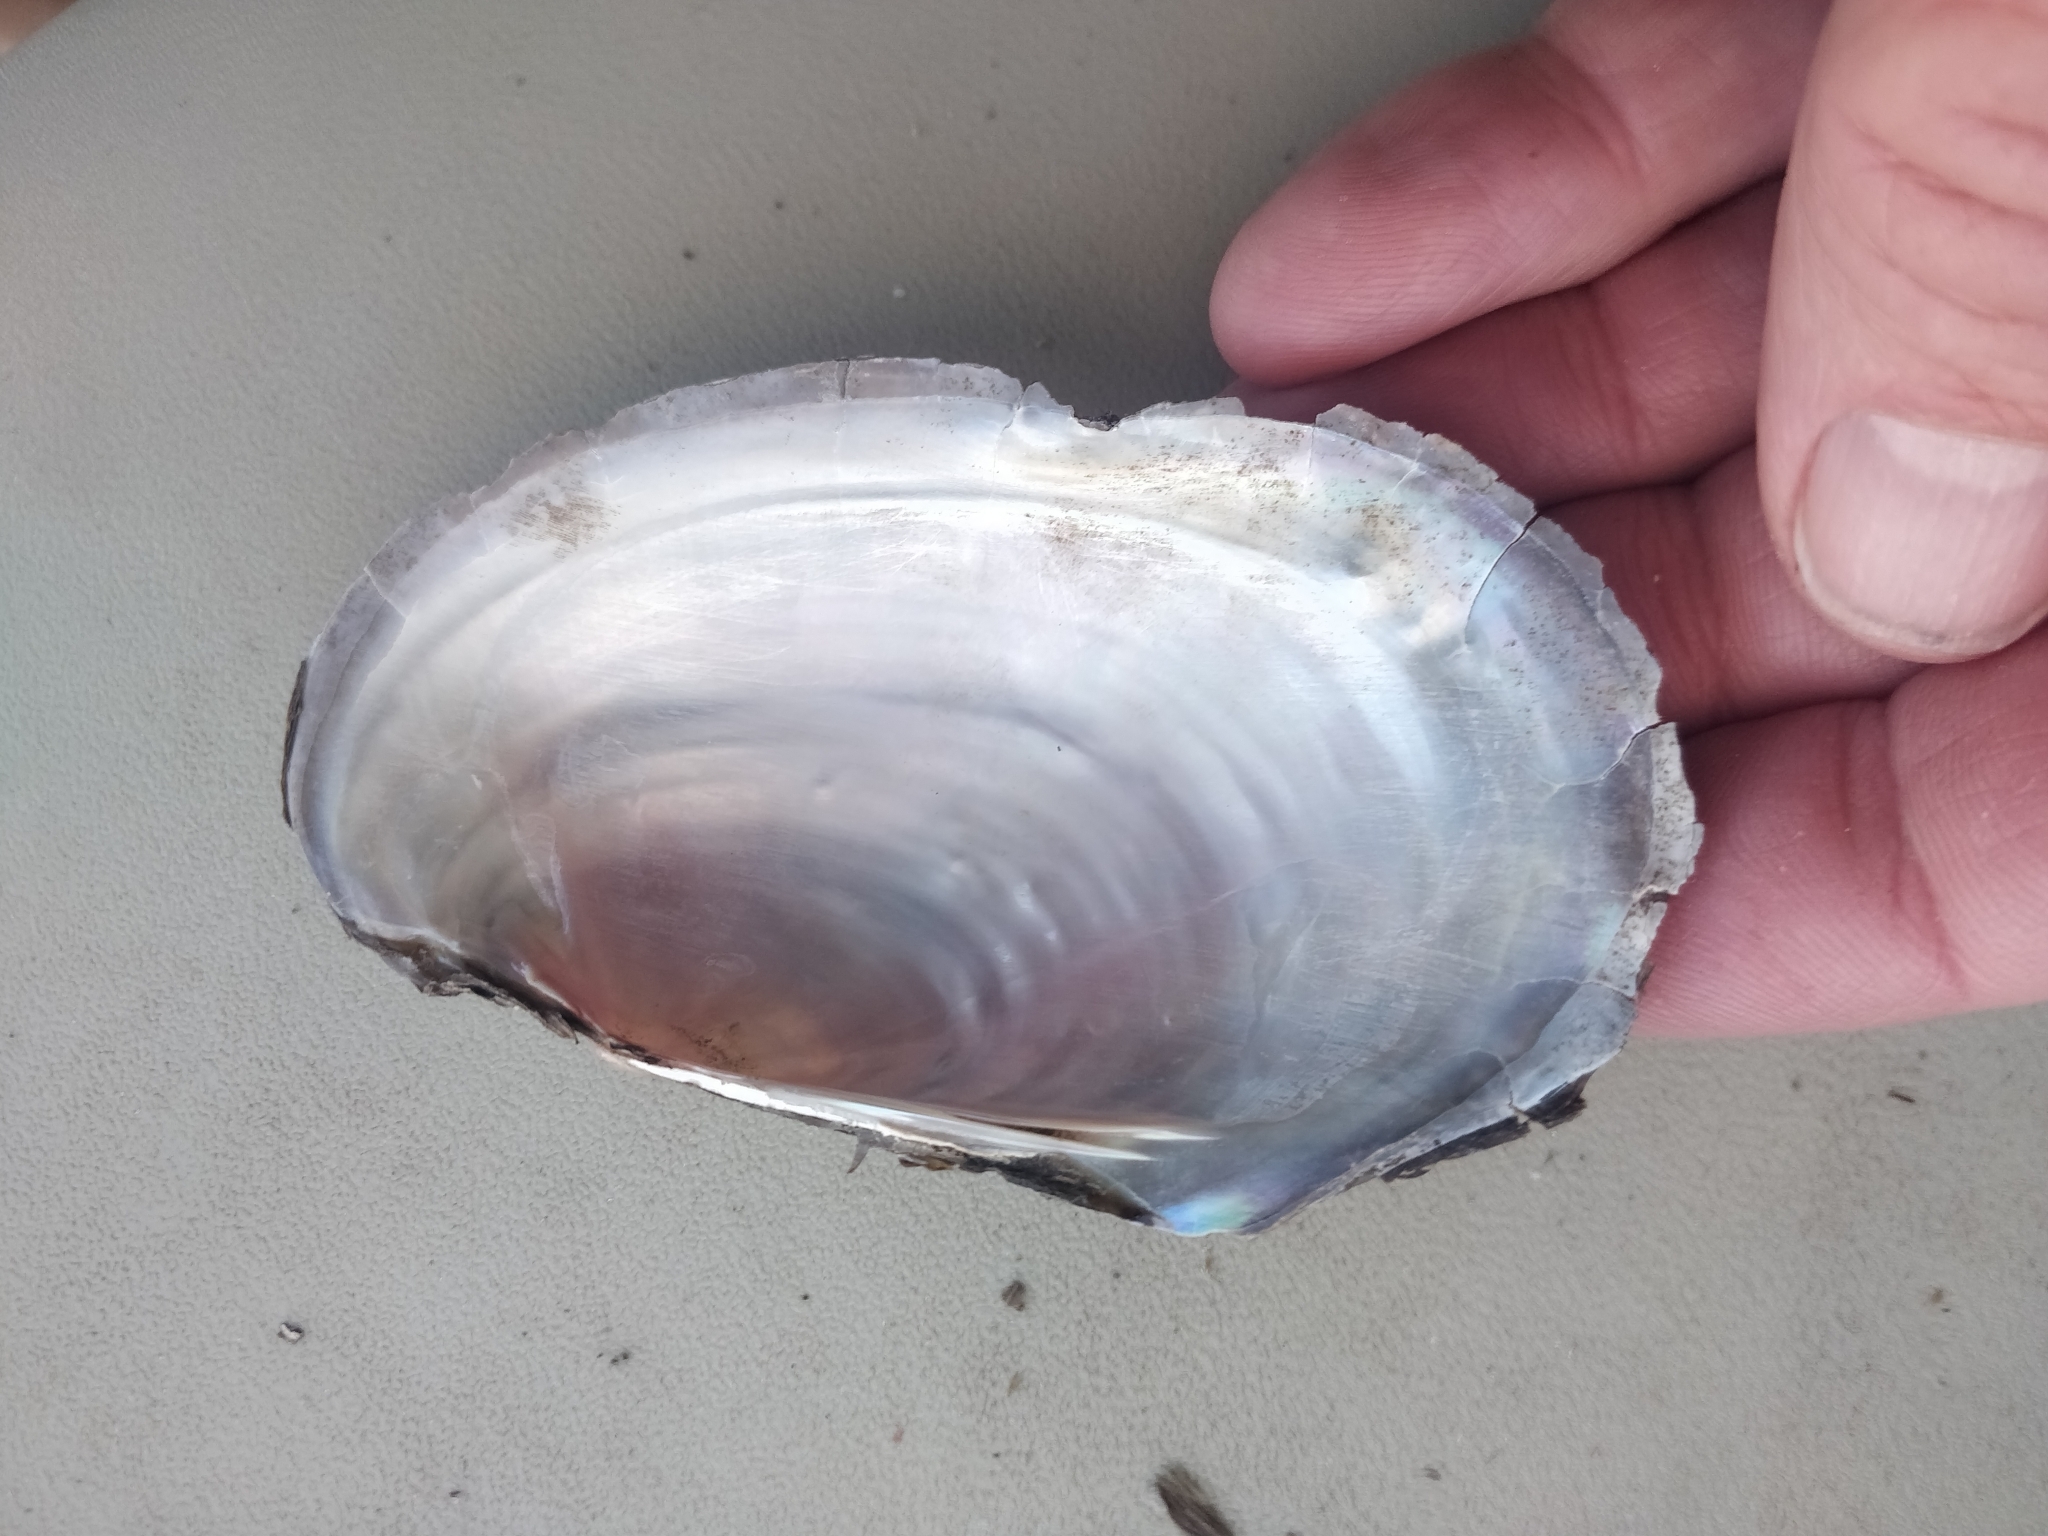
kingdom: Animalia
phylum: Mollusca
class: Bivalvia
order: Unionida
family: Unionidae
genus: Potamilus
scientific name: Potamilus fragilis
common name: Fragile papershell
